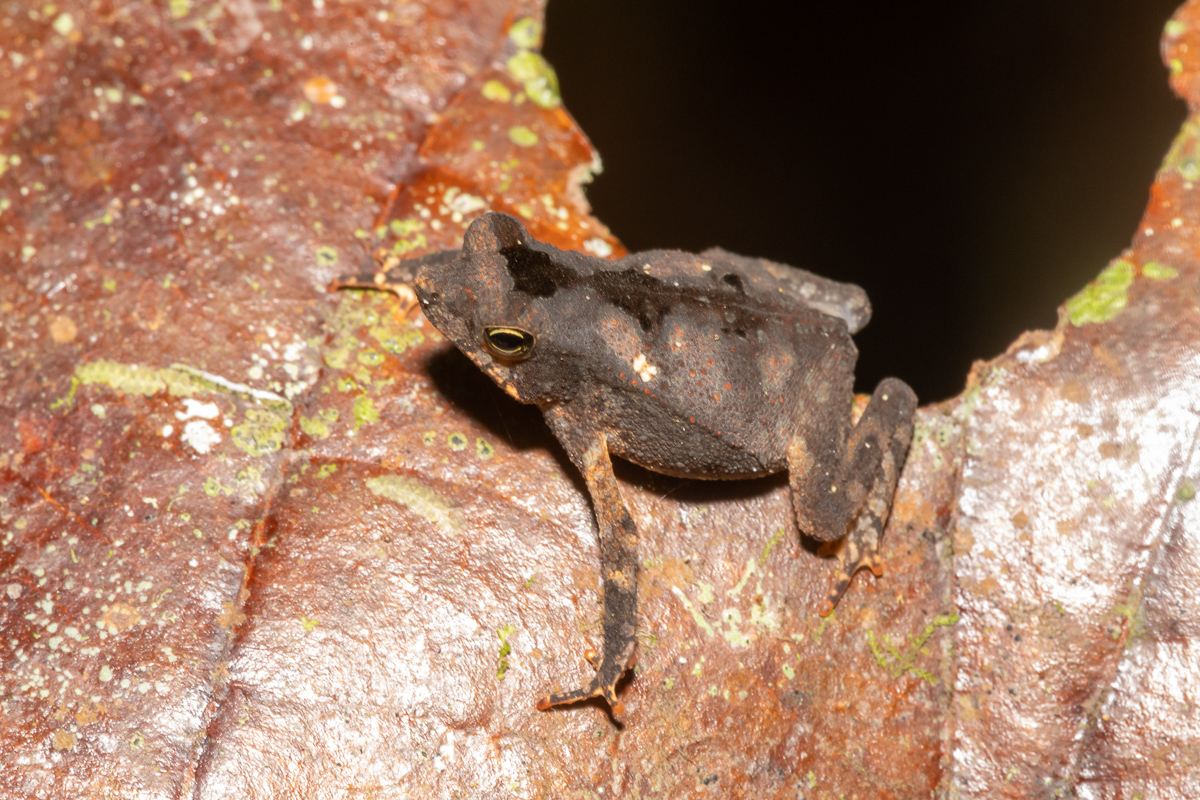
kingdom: Animalia
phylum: Chordata
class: Amphibia
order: Anura
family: Bufonidae
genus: Rhinella
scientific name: Rhinella margaritifera
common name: Mitred toad
